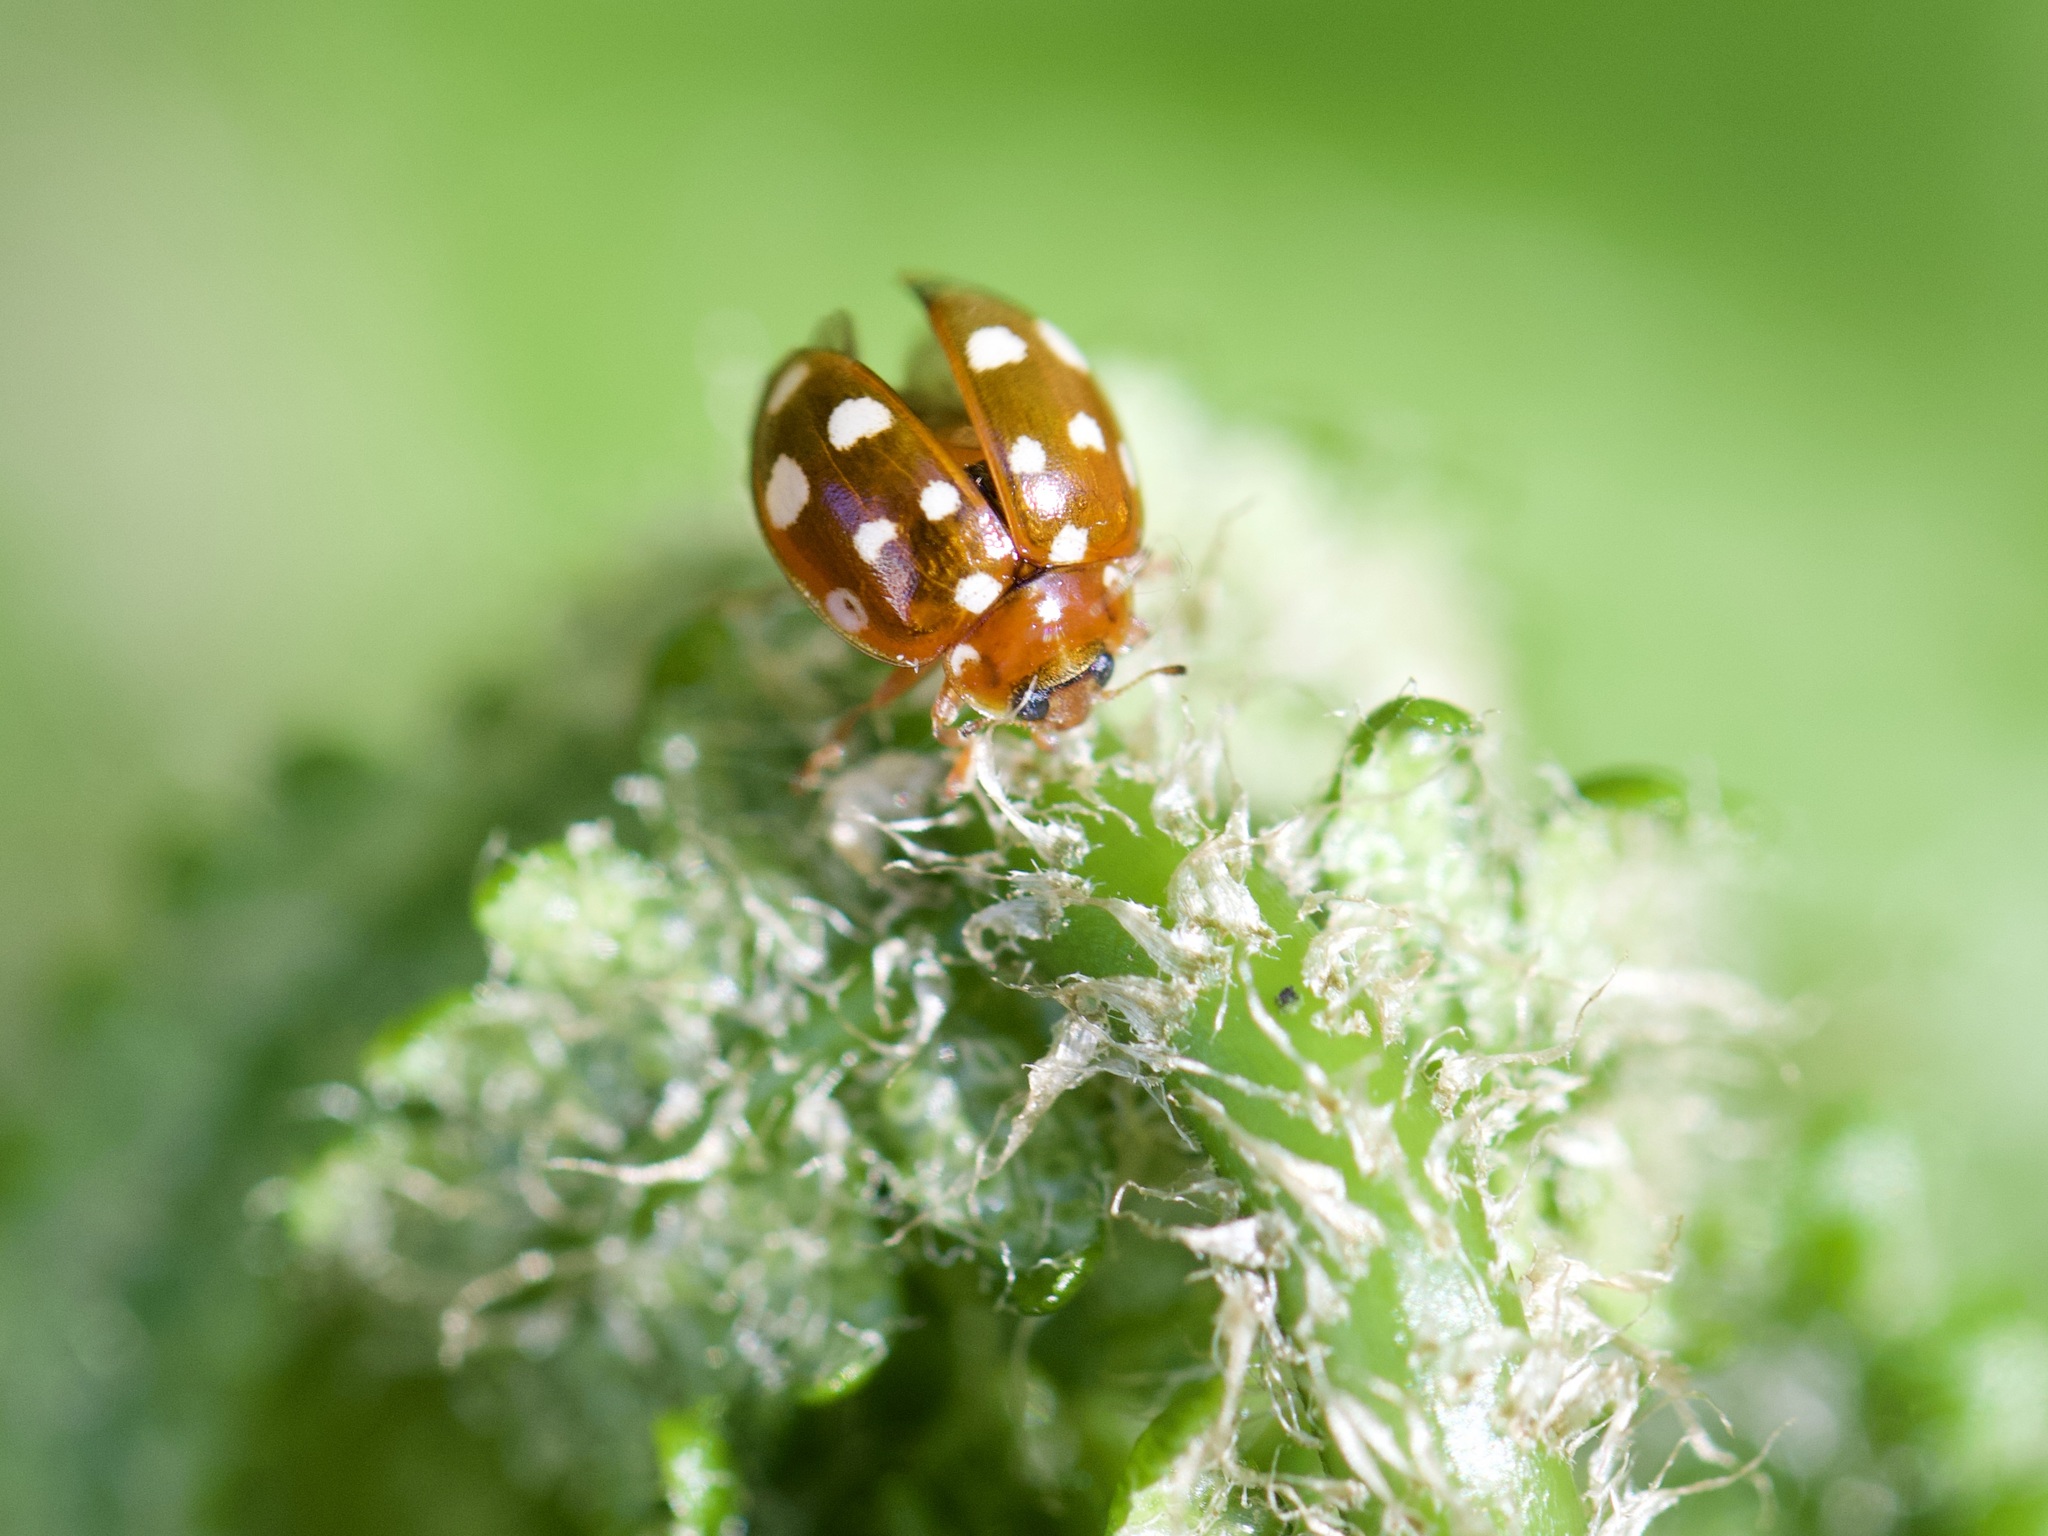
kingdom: Animalia
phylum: Arthropoda
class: Insecta
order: Coleoptera
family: Coccinellidae
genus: Calvia
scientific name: Calvia quatuordecimguttata
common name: Cream-spot ladybird
